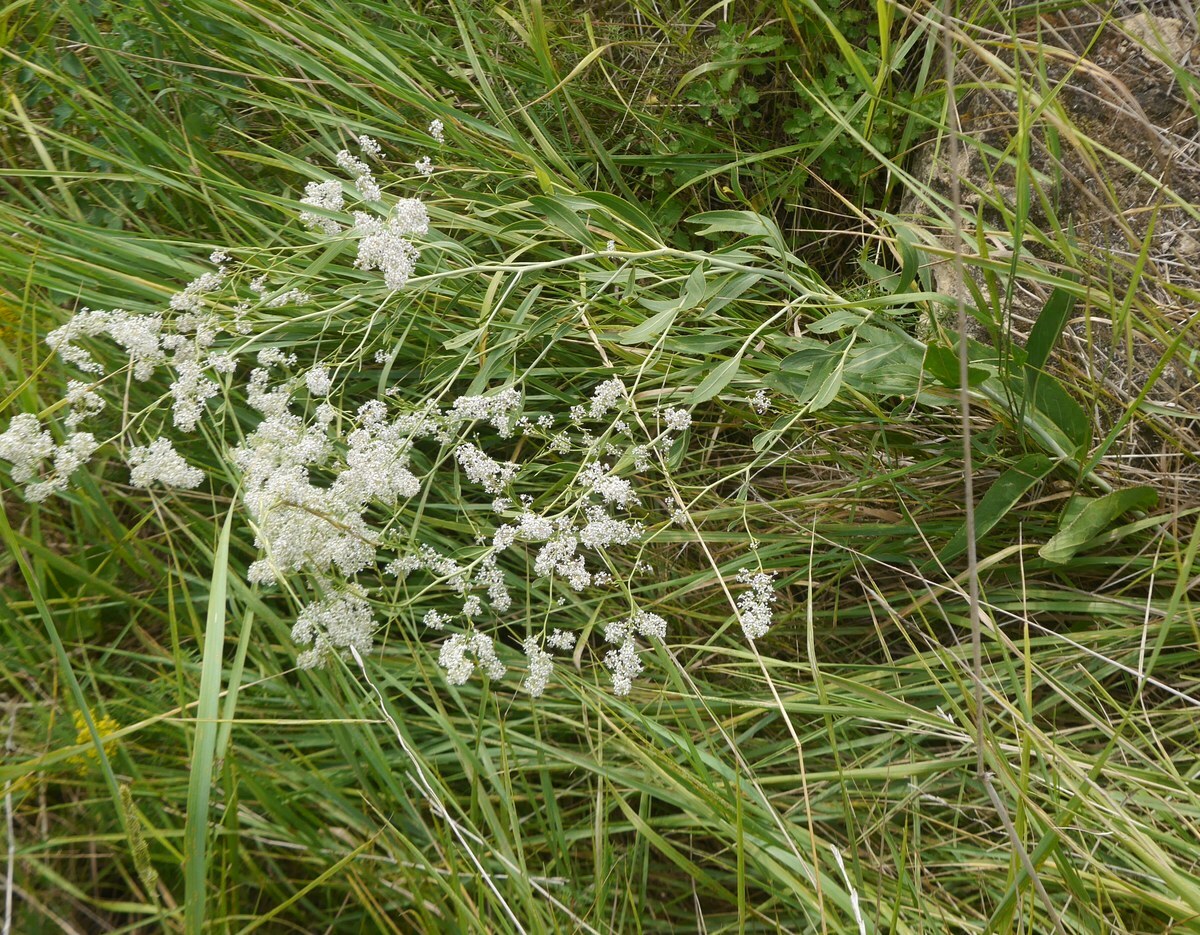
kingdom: Plantae
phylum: Tracheophyta
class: Magnoliopsida
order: Brassicales
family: Brassicaceae
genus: Lepidium
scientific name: Lepidium latifolium
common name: Dittander
